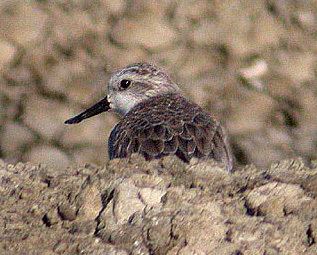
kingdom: Animalia
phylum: Chordata
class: Aves
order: Charadriiformes
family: Scolopacidae
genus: Calidris
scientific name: Calidris pygmaea
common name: Spoon-billed sandpiper
